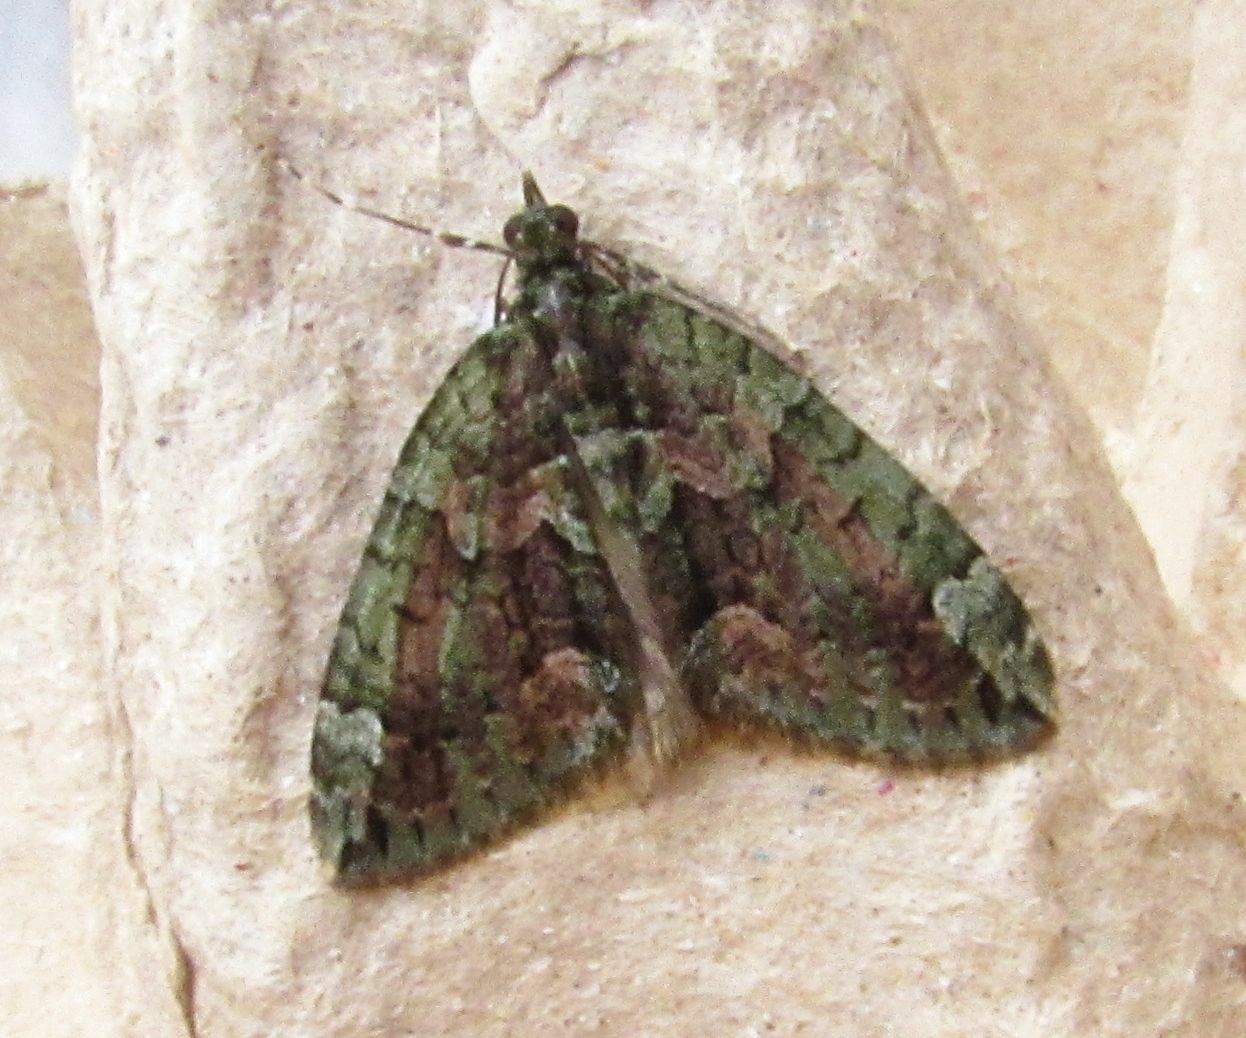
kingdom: Animalia
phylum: Arthropoda
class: Insecta
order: Lepidoptera
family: Geometridae
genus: Chloroclysta
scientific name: Chloroclysta siterata
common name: Red-green carpet
